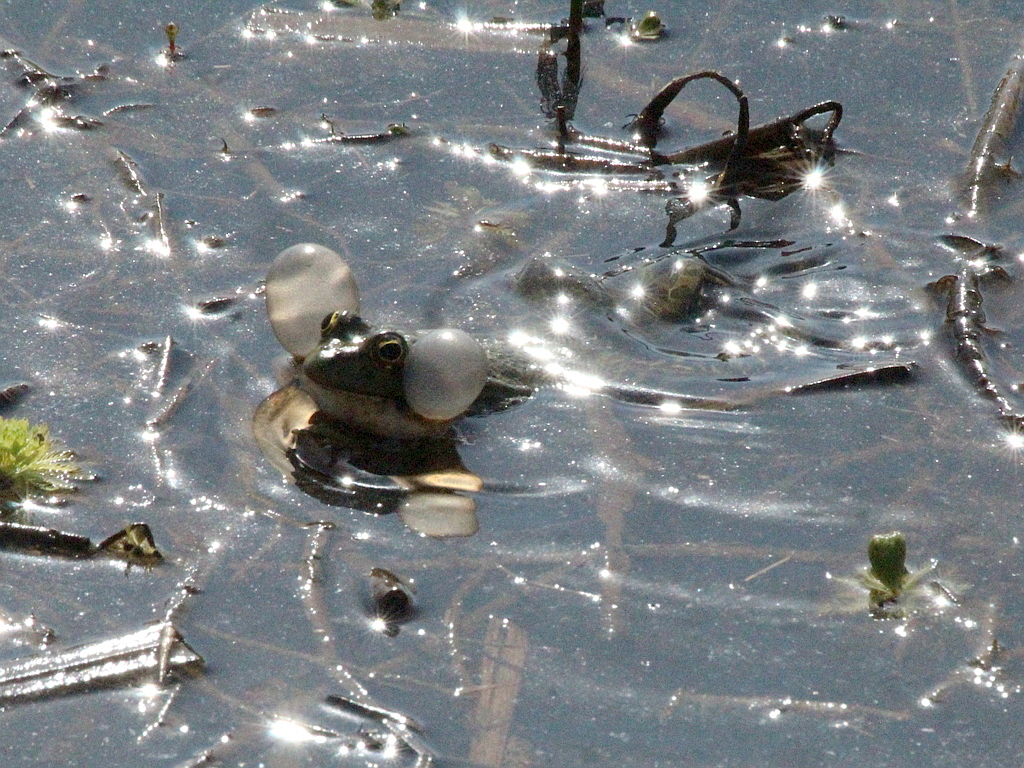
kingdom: Animalia
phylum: Chordata
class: Amphibia
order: Anura
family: Ranidae
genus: Pelophylax
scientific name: Pelophylax ridibundus
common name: Marsh frog
